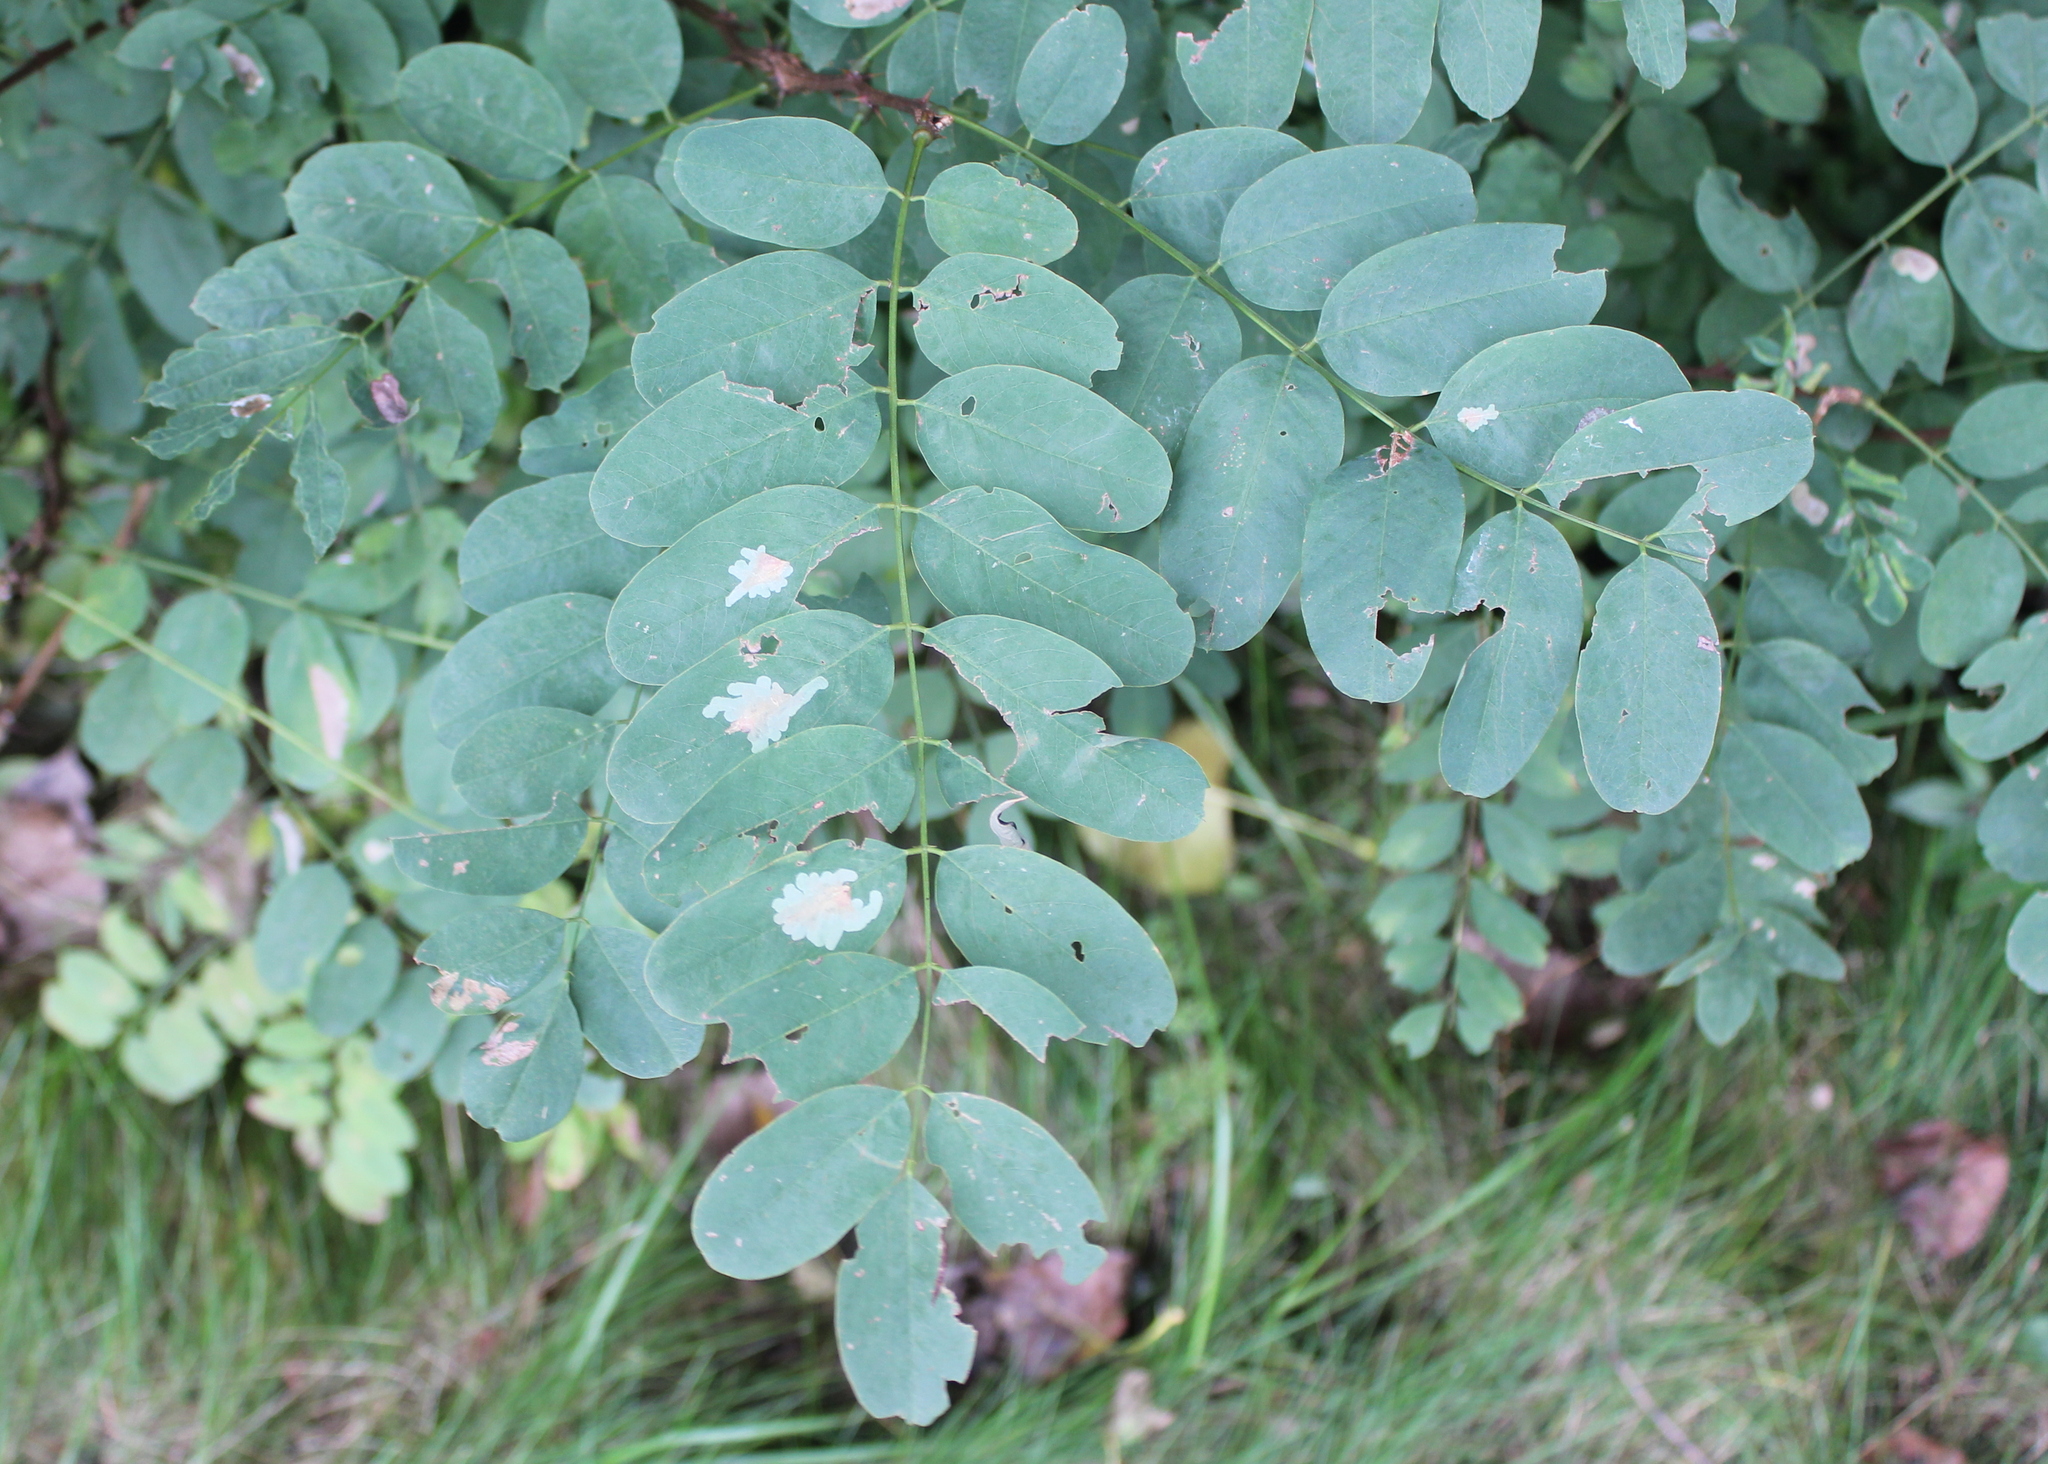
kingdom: Plantae
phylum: Tracheophyta
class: Magnoliopsida
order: Fabales
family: Fabaceae
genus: Robinia
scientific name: Robinia pseudoacacia
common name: Black locust
